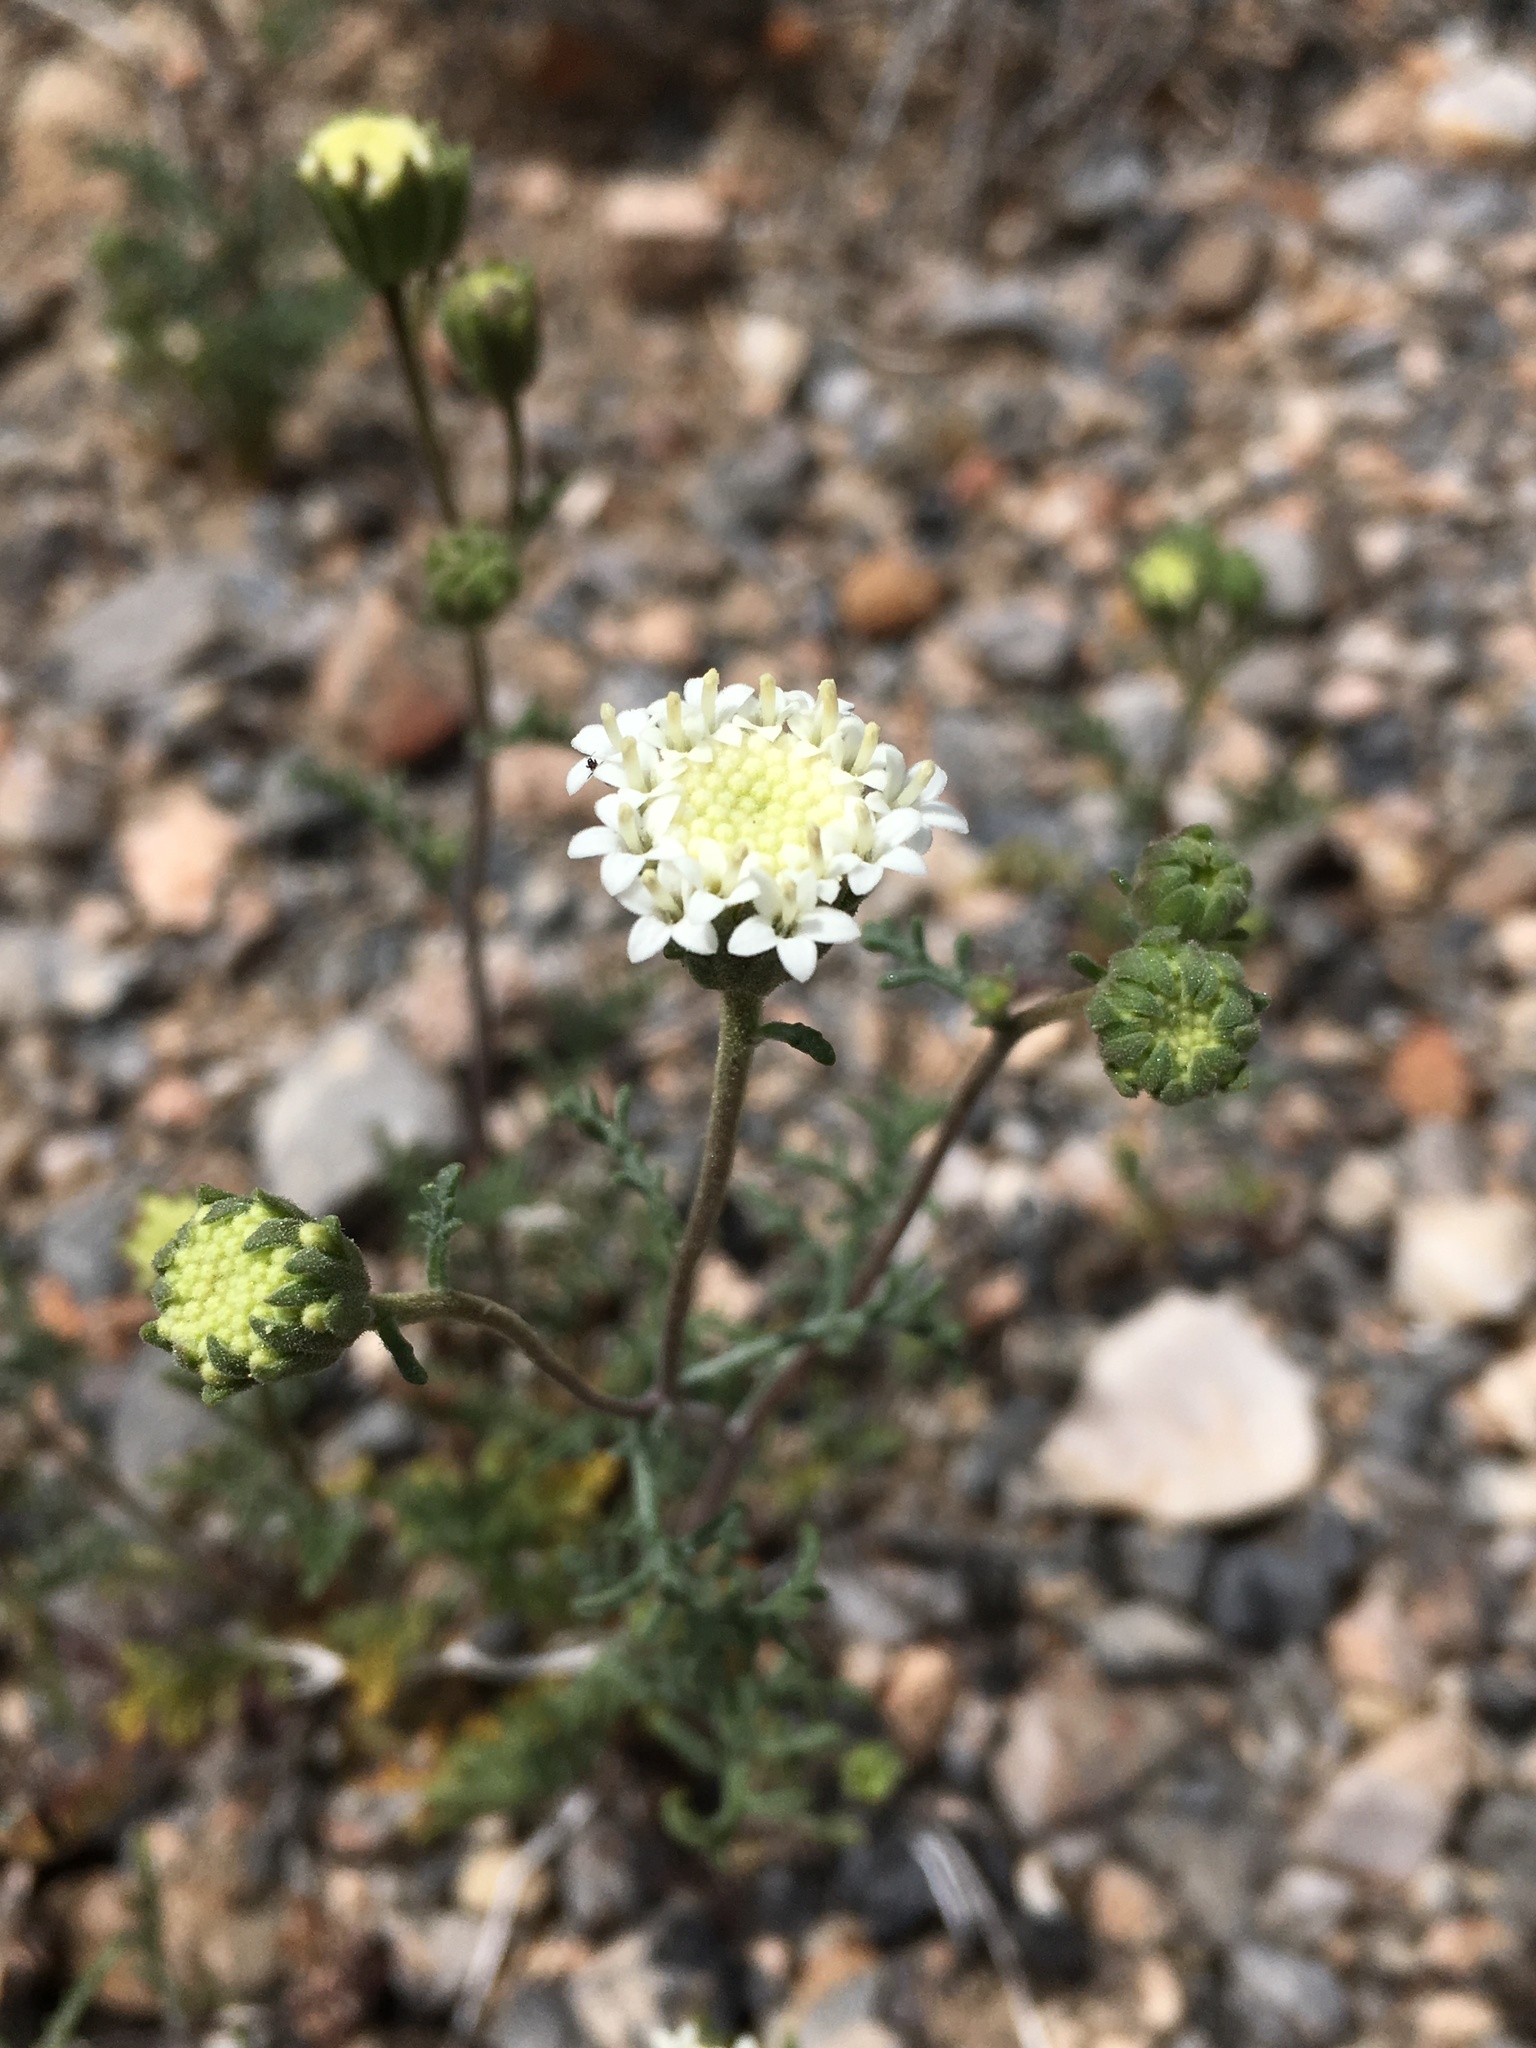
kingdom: Plantae
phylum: Tracheophyta
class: Magnoliopsida
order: Asterales
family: Asteraceae
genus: Chaenactis
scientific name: Chaenactis stevioides
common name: Desert pincushion
